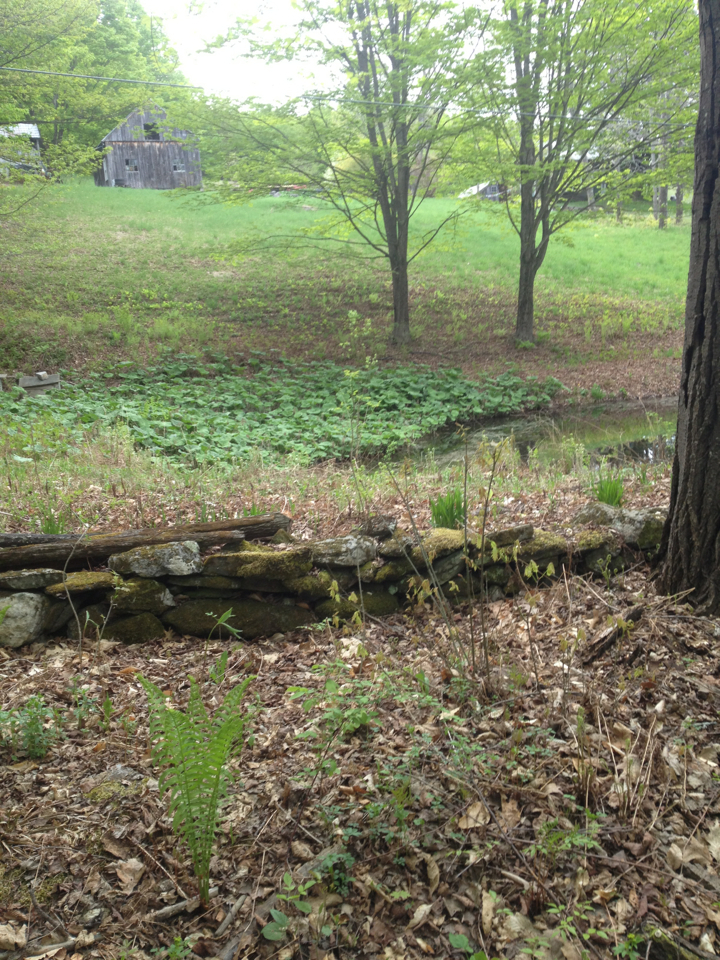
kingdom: Animalia
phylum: Chordata
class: Amphibia
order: Anura
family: Hylidae
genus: Pseudacris
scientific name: Pseudacris crucifer
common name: Spring peeper
